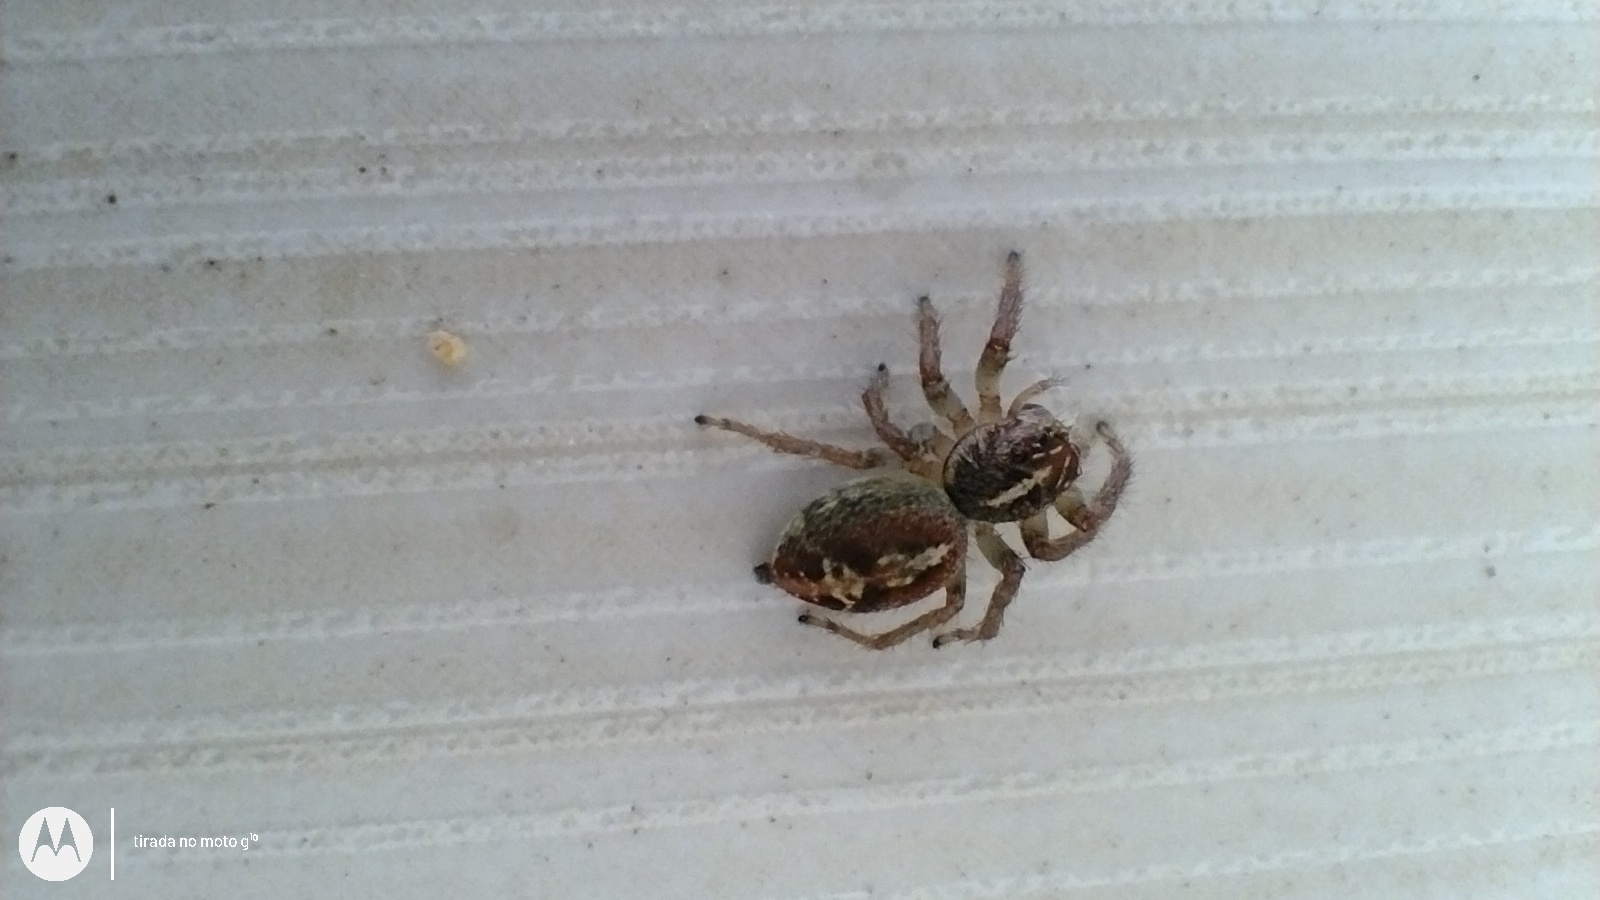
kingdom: Animalia
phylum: Arthropoda
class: Arachnida
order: Araneae
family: Salticidae
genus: Frigga
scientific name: Frigga coronigera
